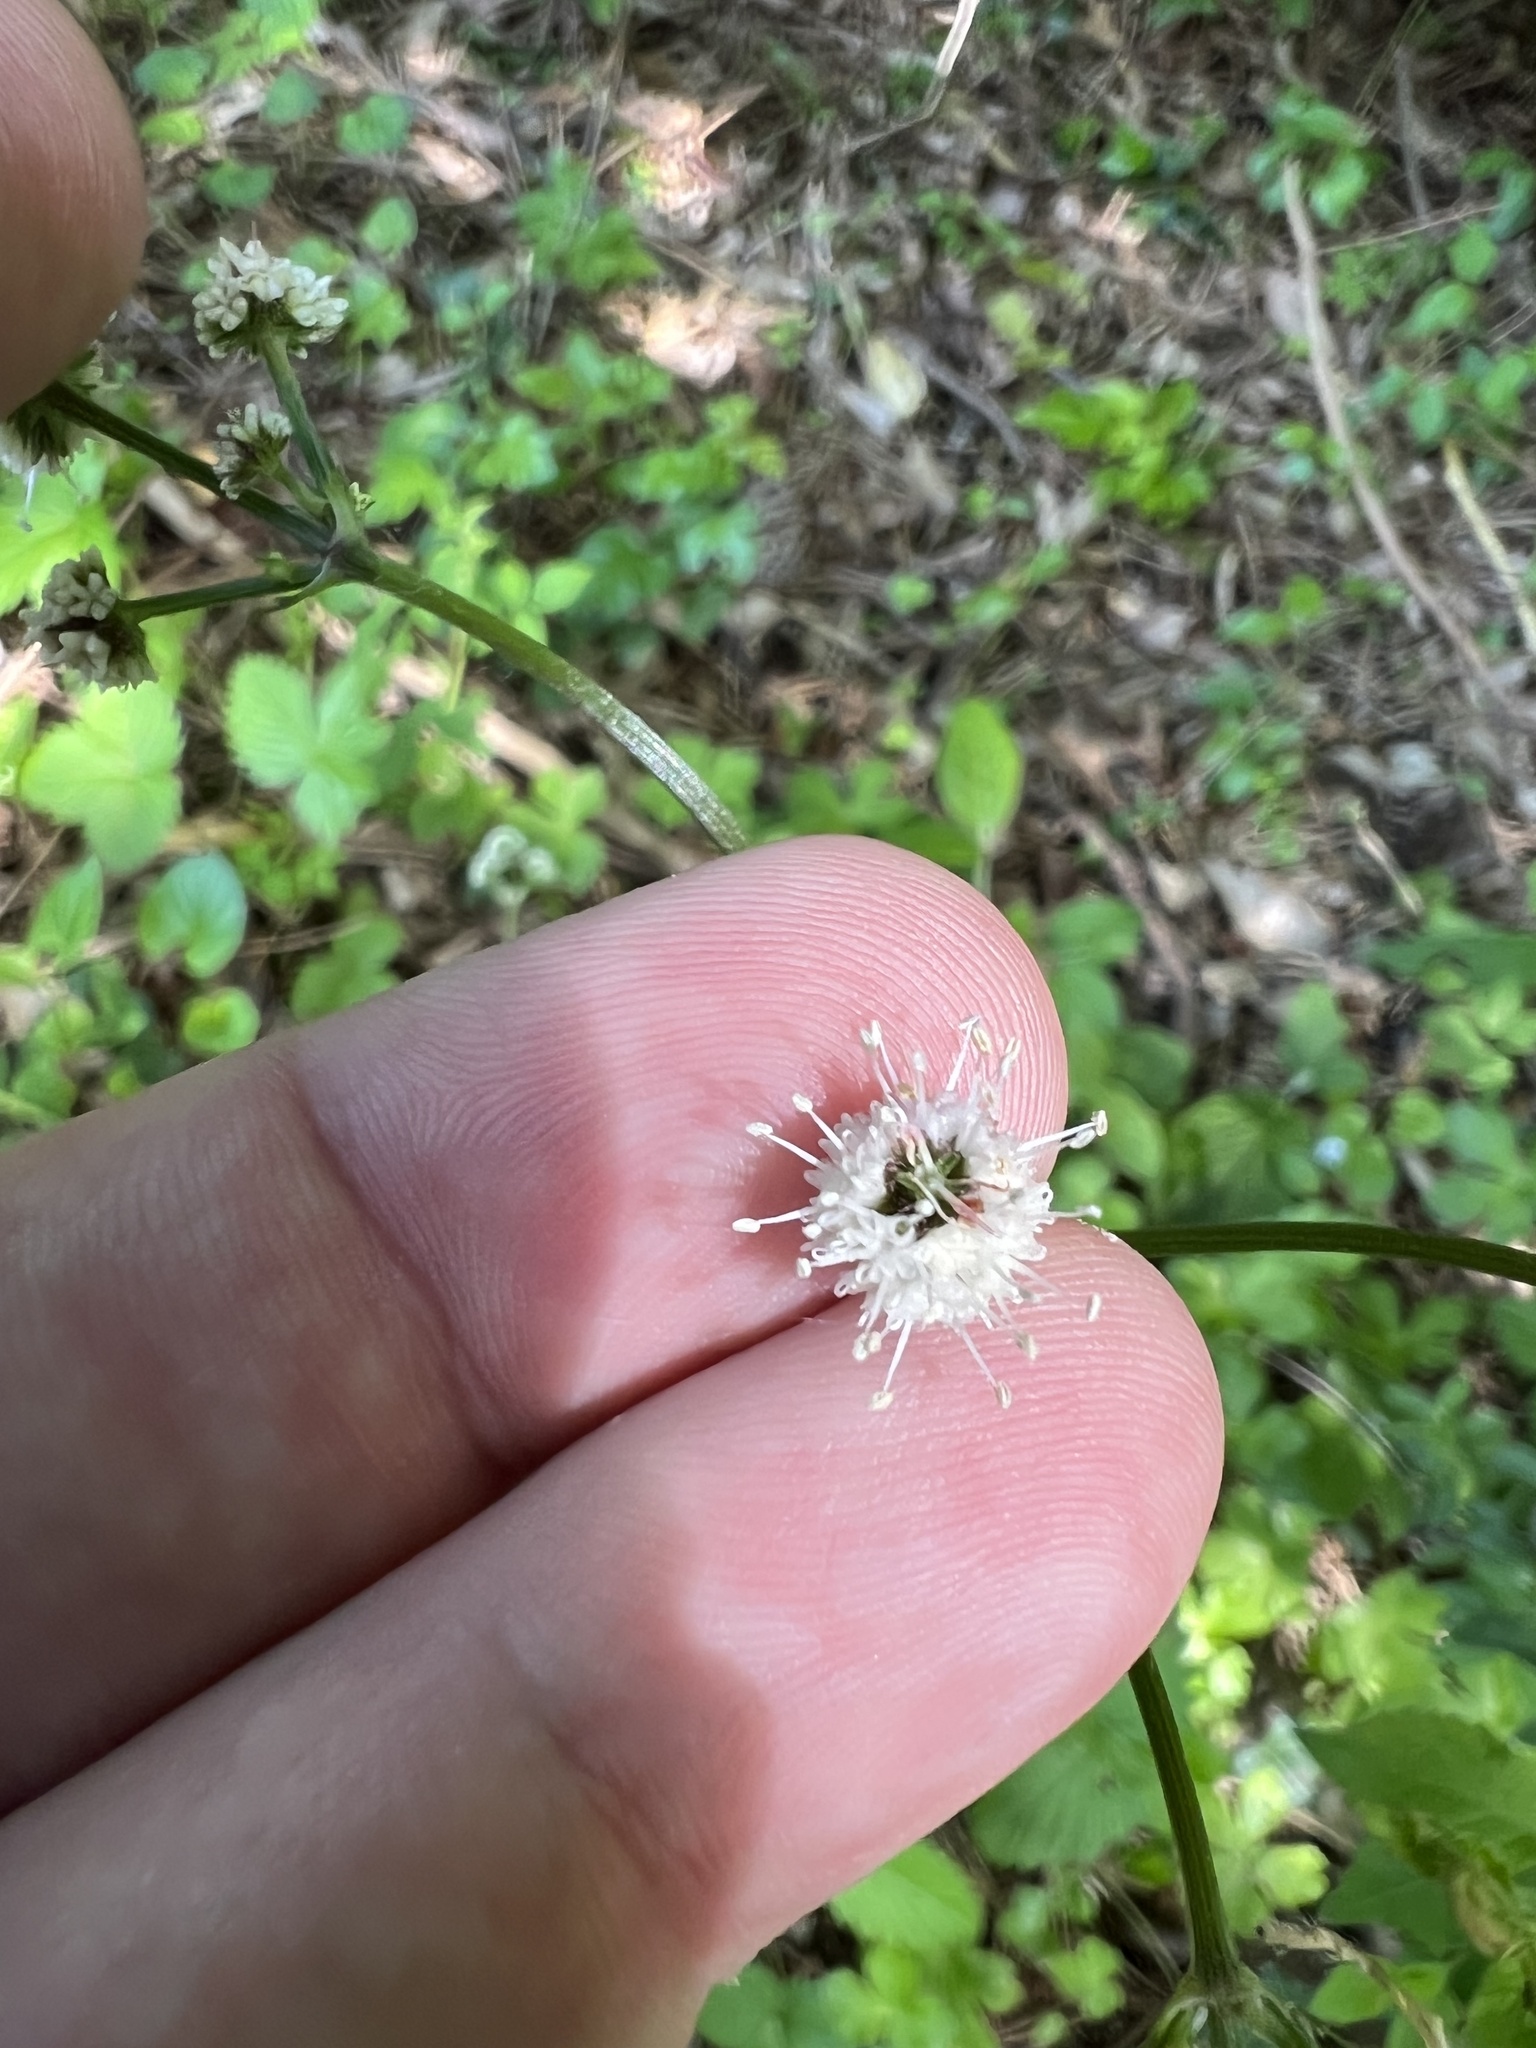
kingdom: Plantae
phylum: Tracheophyta
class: Magnoliopsida
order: Apiales
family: Apiaceae
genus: Sanicula
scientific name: Sanicula europaea
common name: Sanicle
